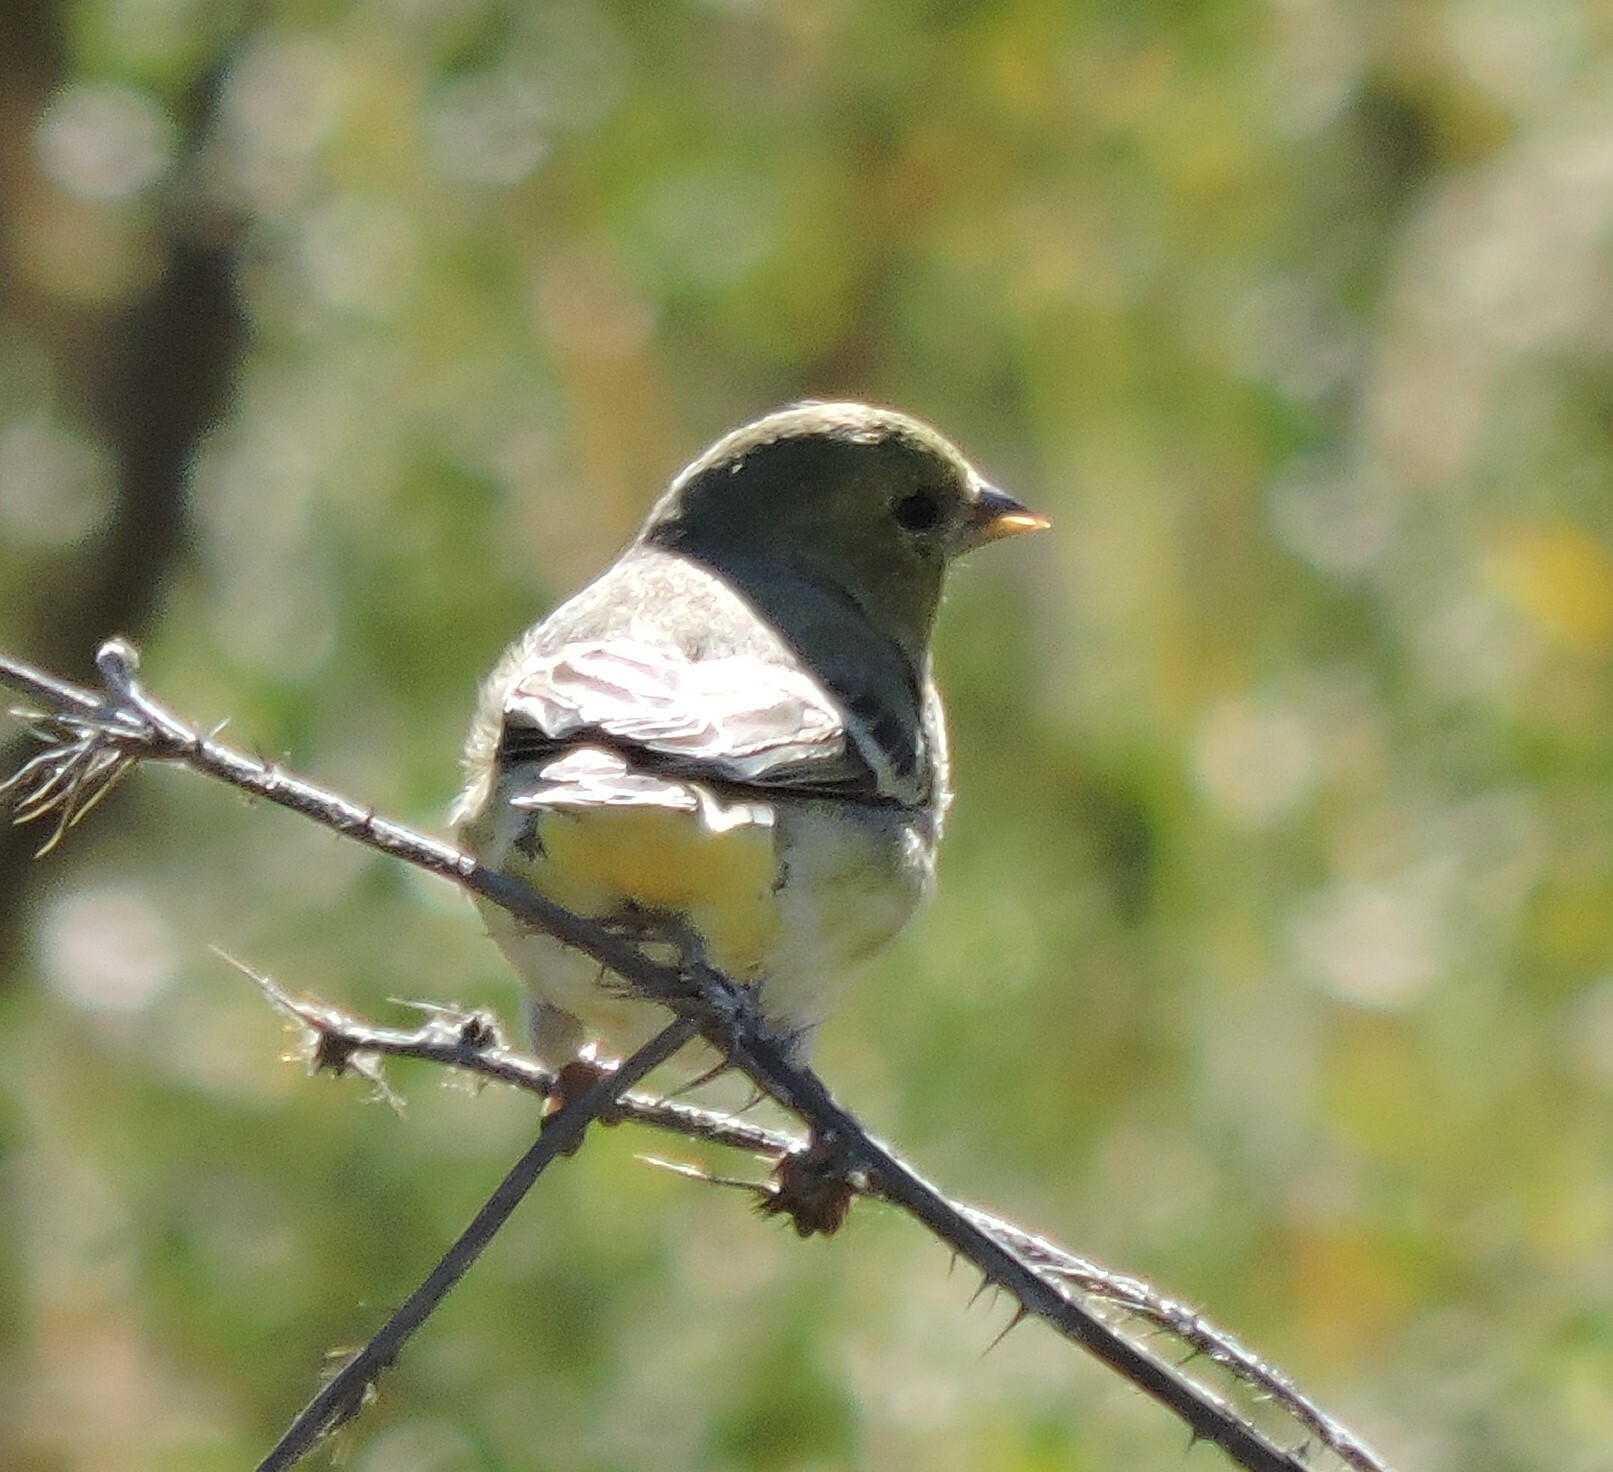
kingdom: Animalia
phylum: Chordata
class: Aves
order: Passeriformes
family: Fringillidae
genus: Spinus
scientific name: Spinus psaltria
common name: Lesser goldfinch
